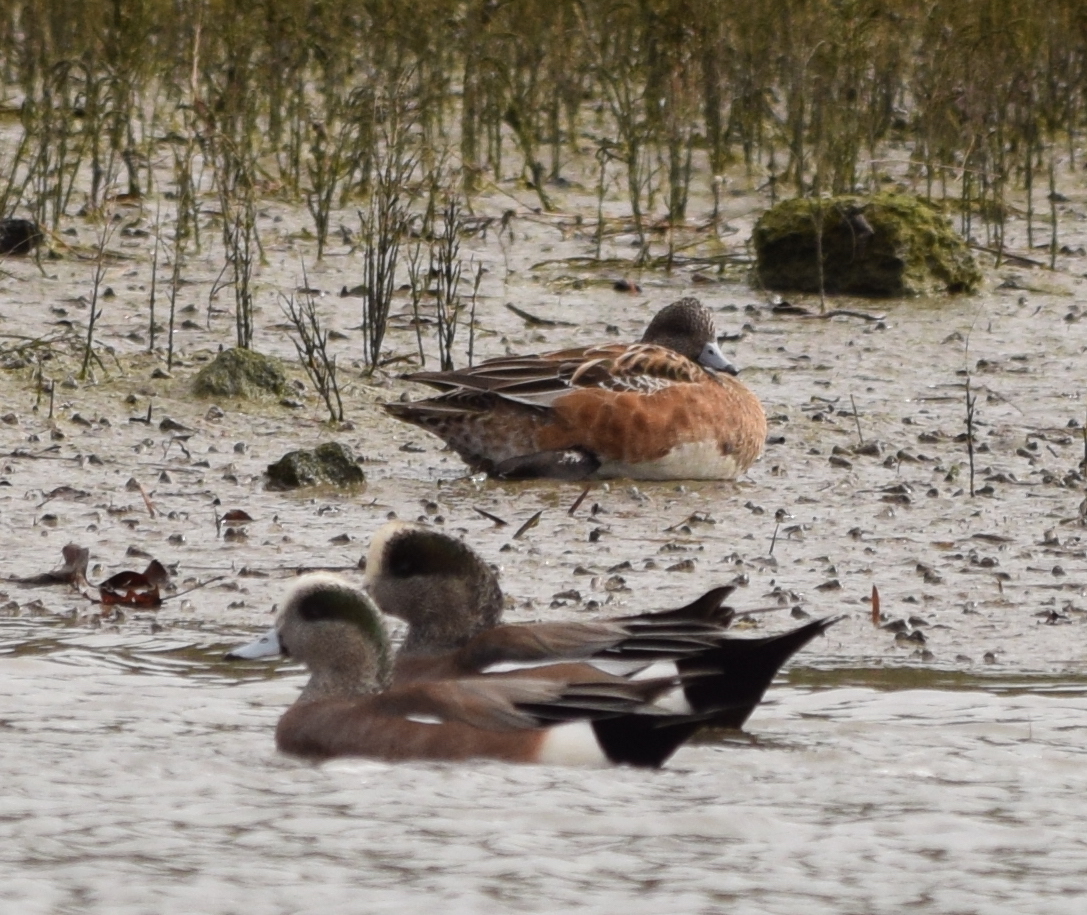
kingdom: Animalia
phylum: Chordata
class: Aves
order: Anseriformes
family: Anatidae
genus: Mareca
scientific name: Mareca americana
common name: American wigeon
